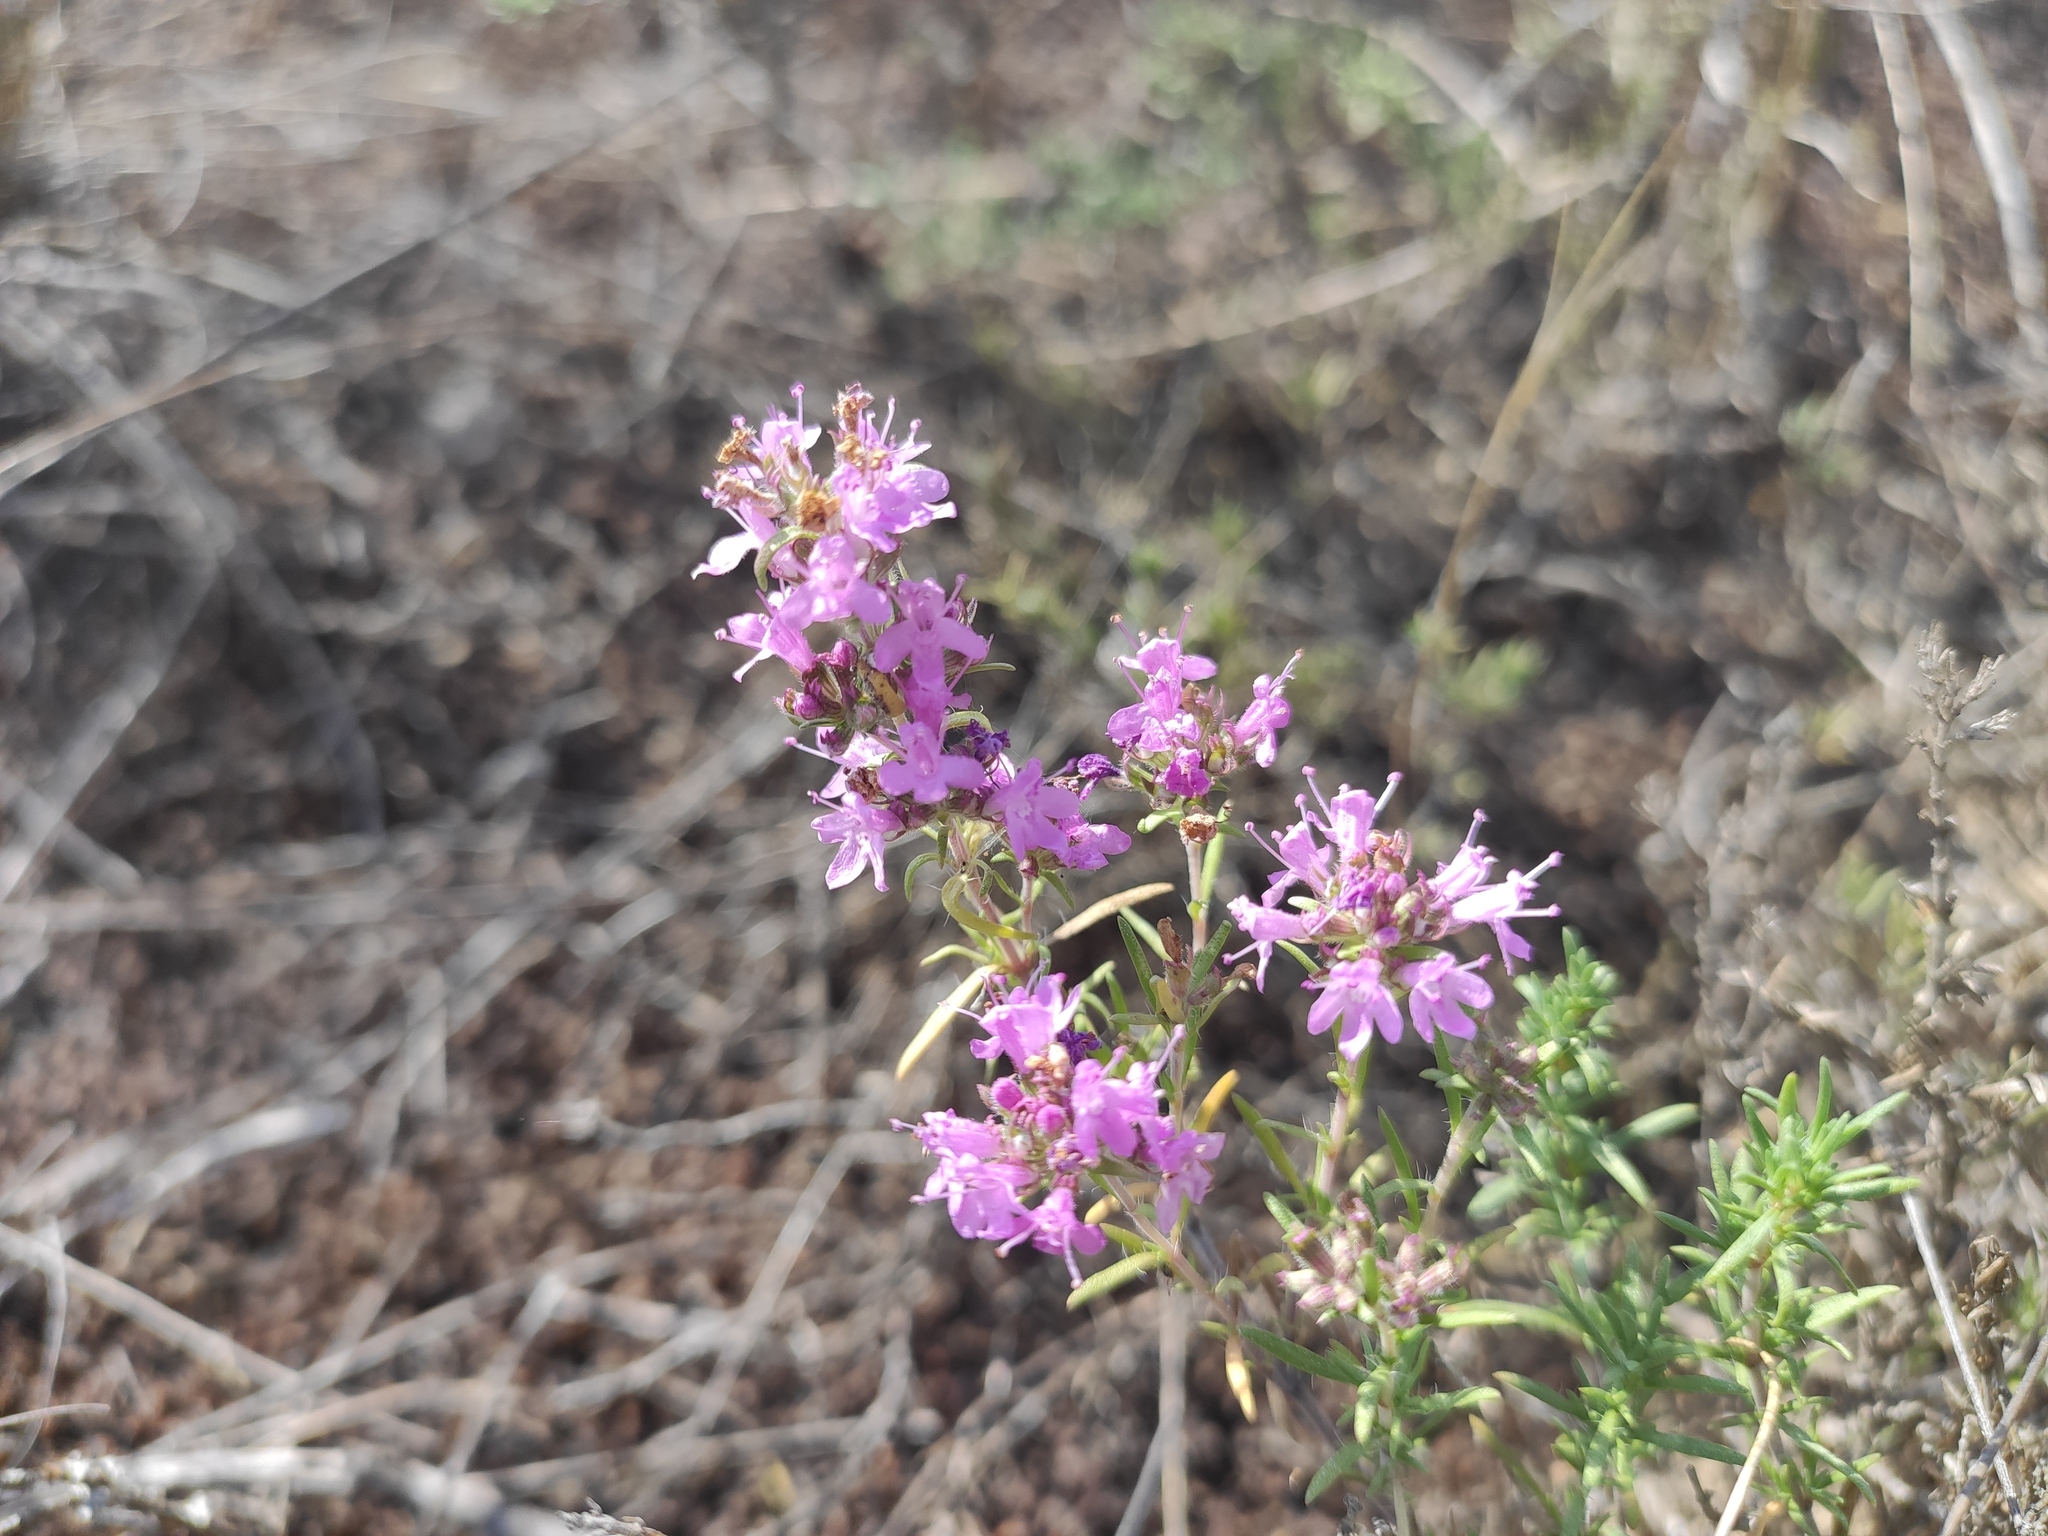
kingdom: Plantae
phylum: Tracheophyta
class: Magnoliopsida
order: Lamiales
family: Lamiaceae
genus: Thymus
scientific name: Thymus pallasianus
